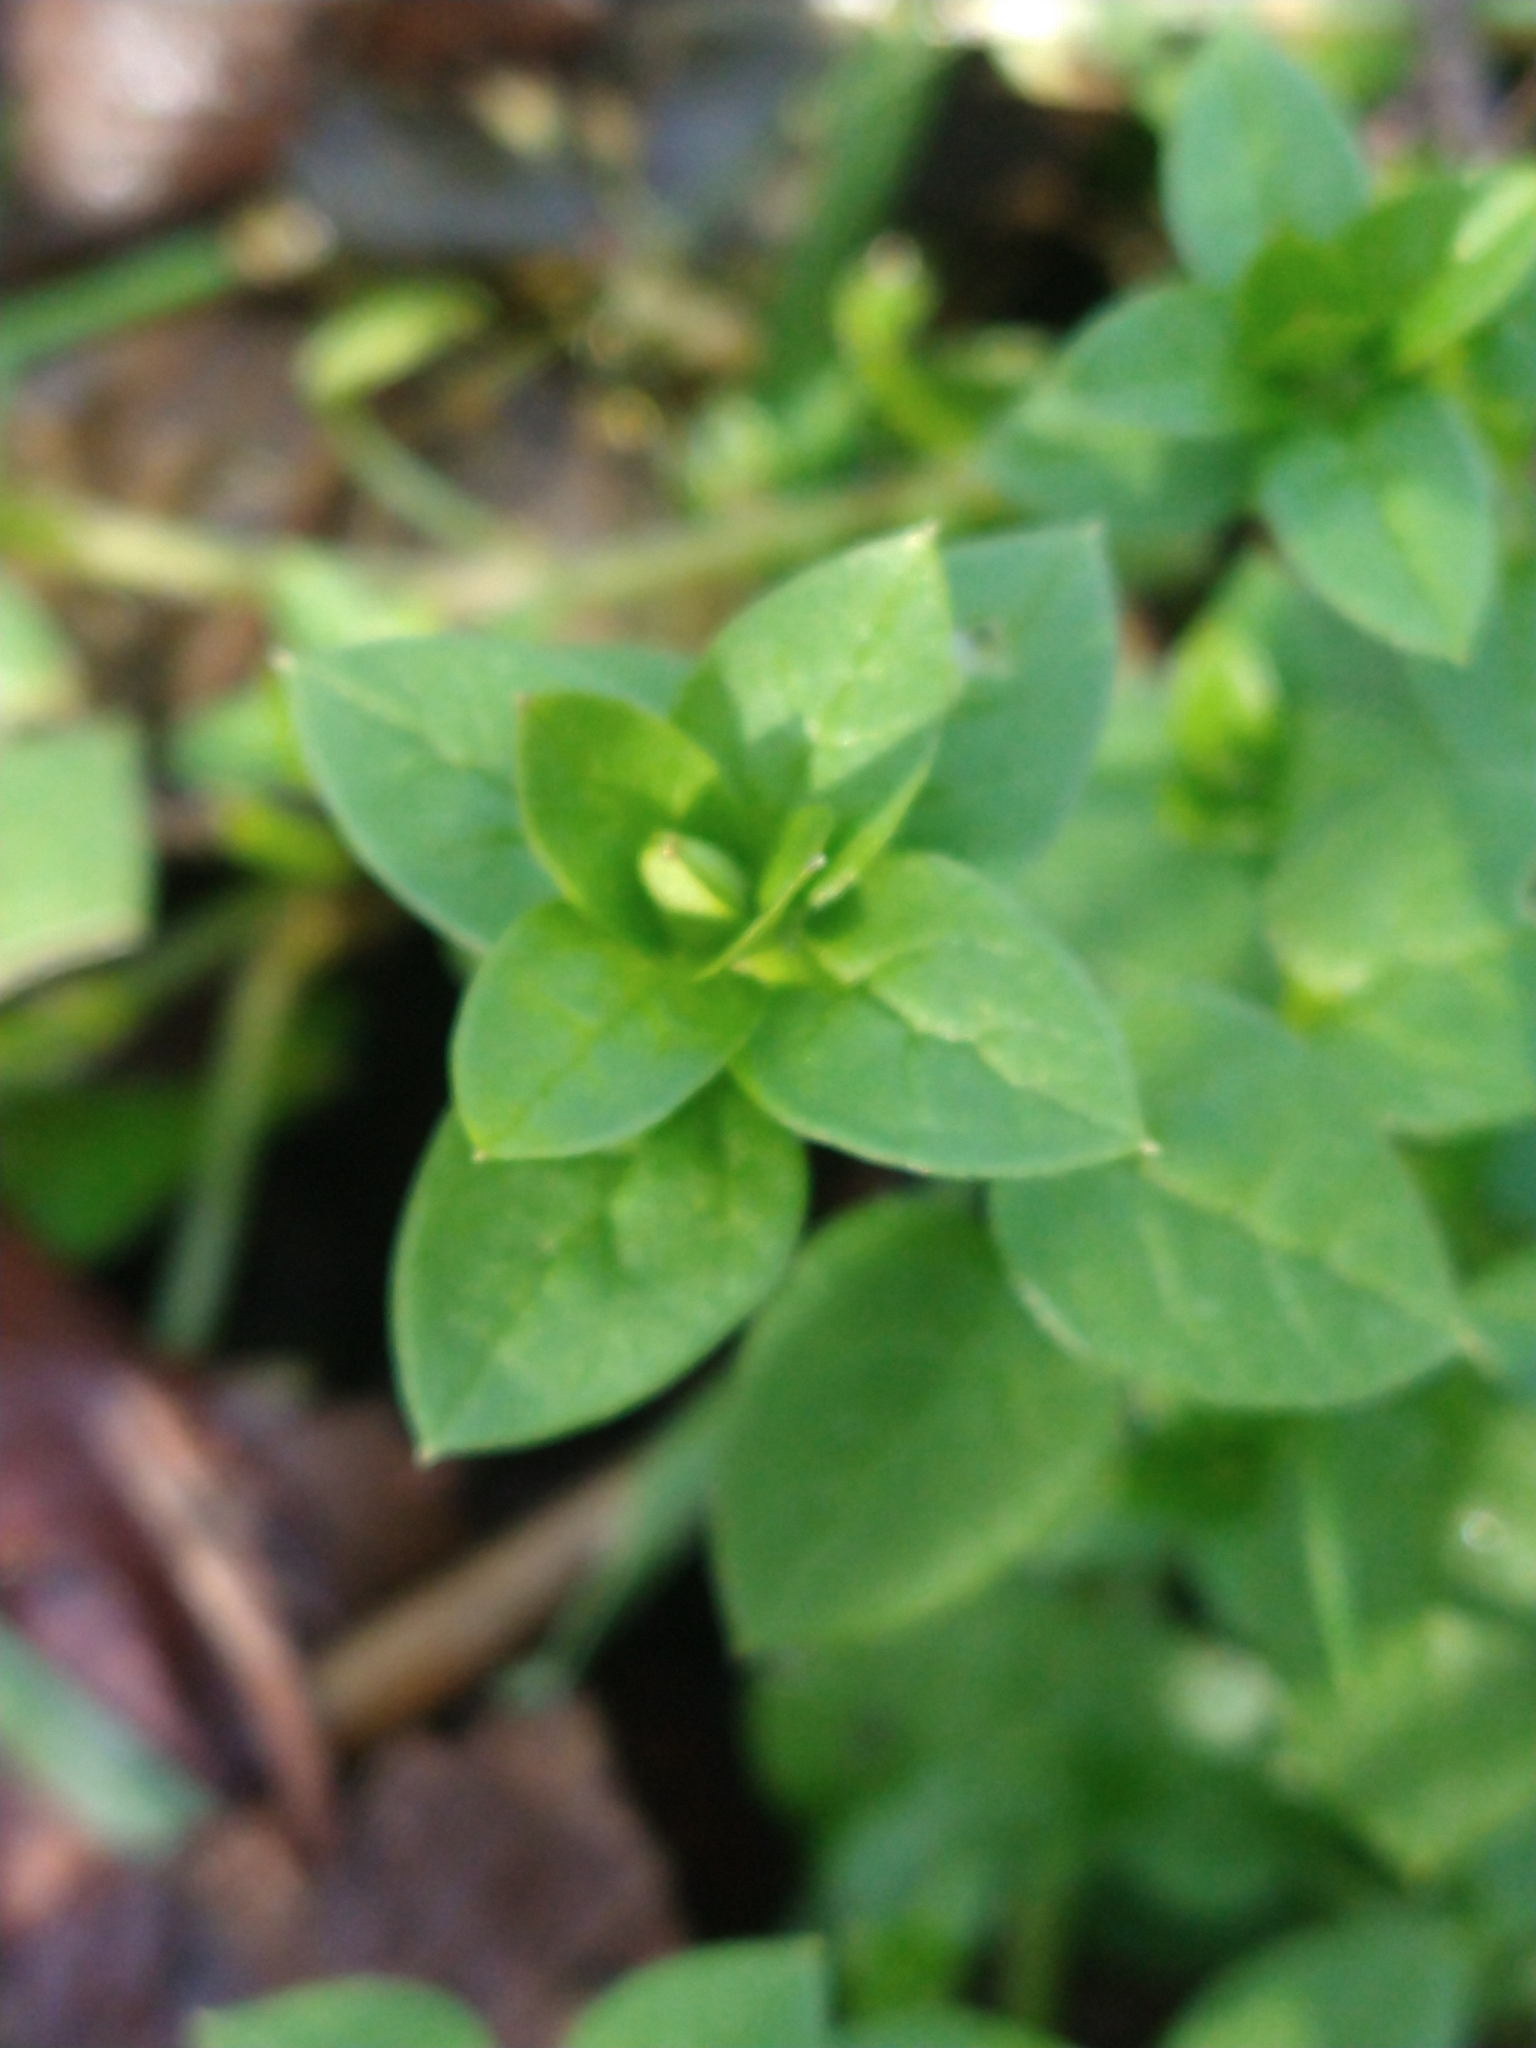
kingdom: Plantae
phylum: Tracheophyta
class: Magnoliopsida
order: Caryophyllales
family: Caryophyllaceae
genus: Stellaria
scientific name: Stellaria media
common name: Common chickweed
